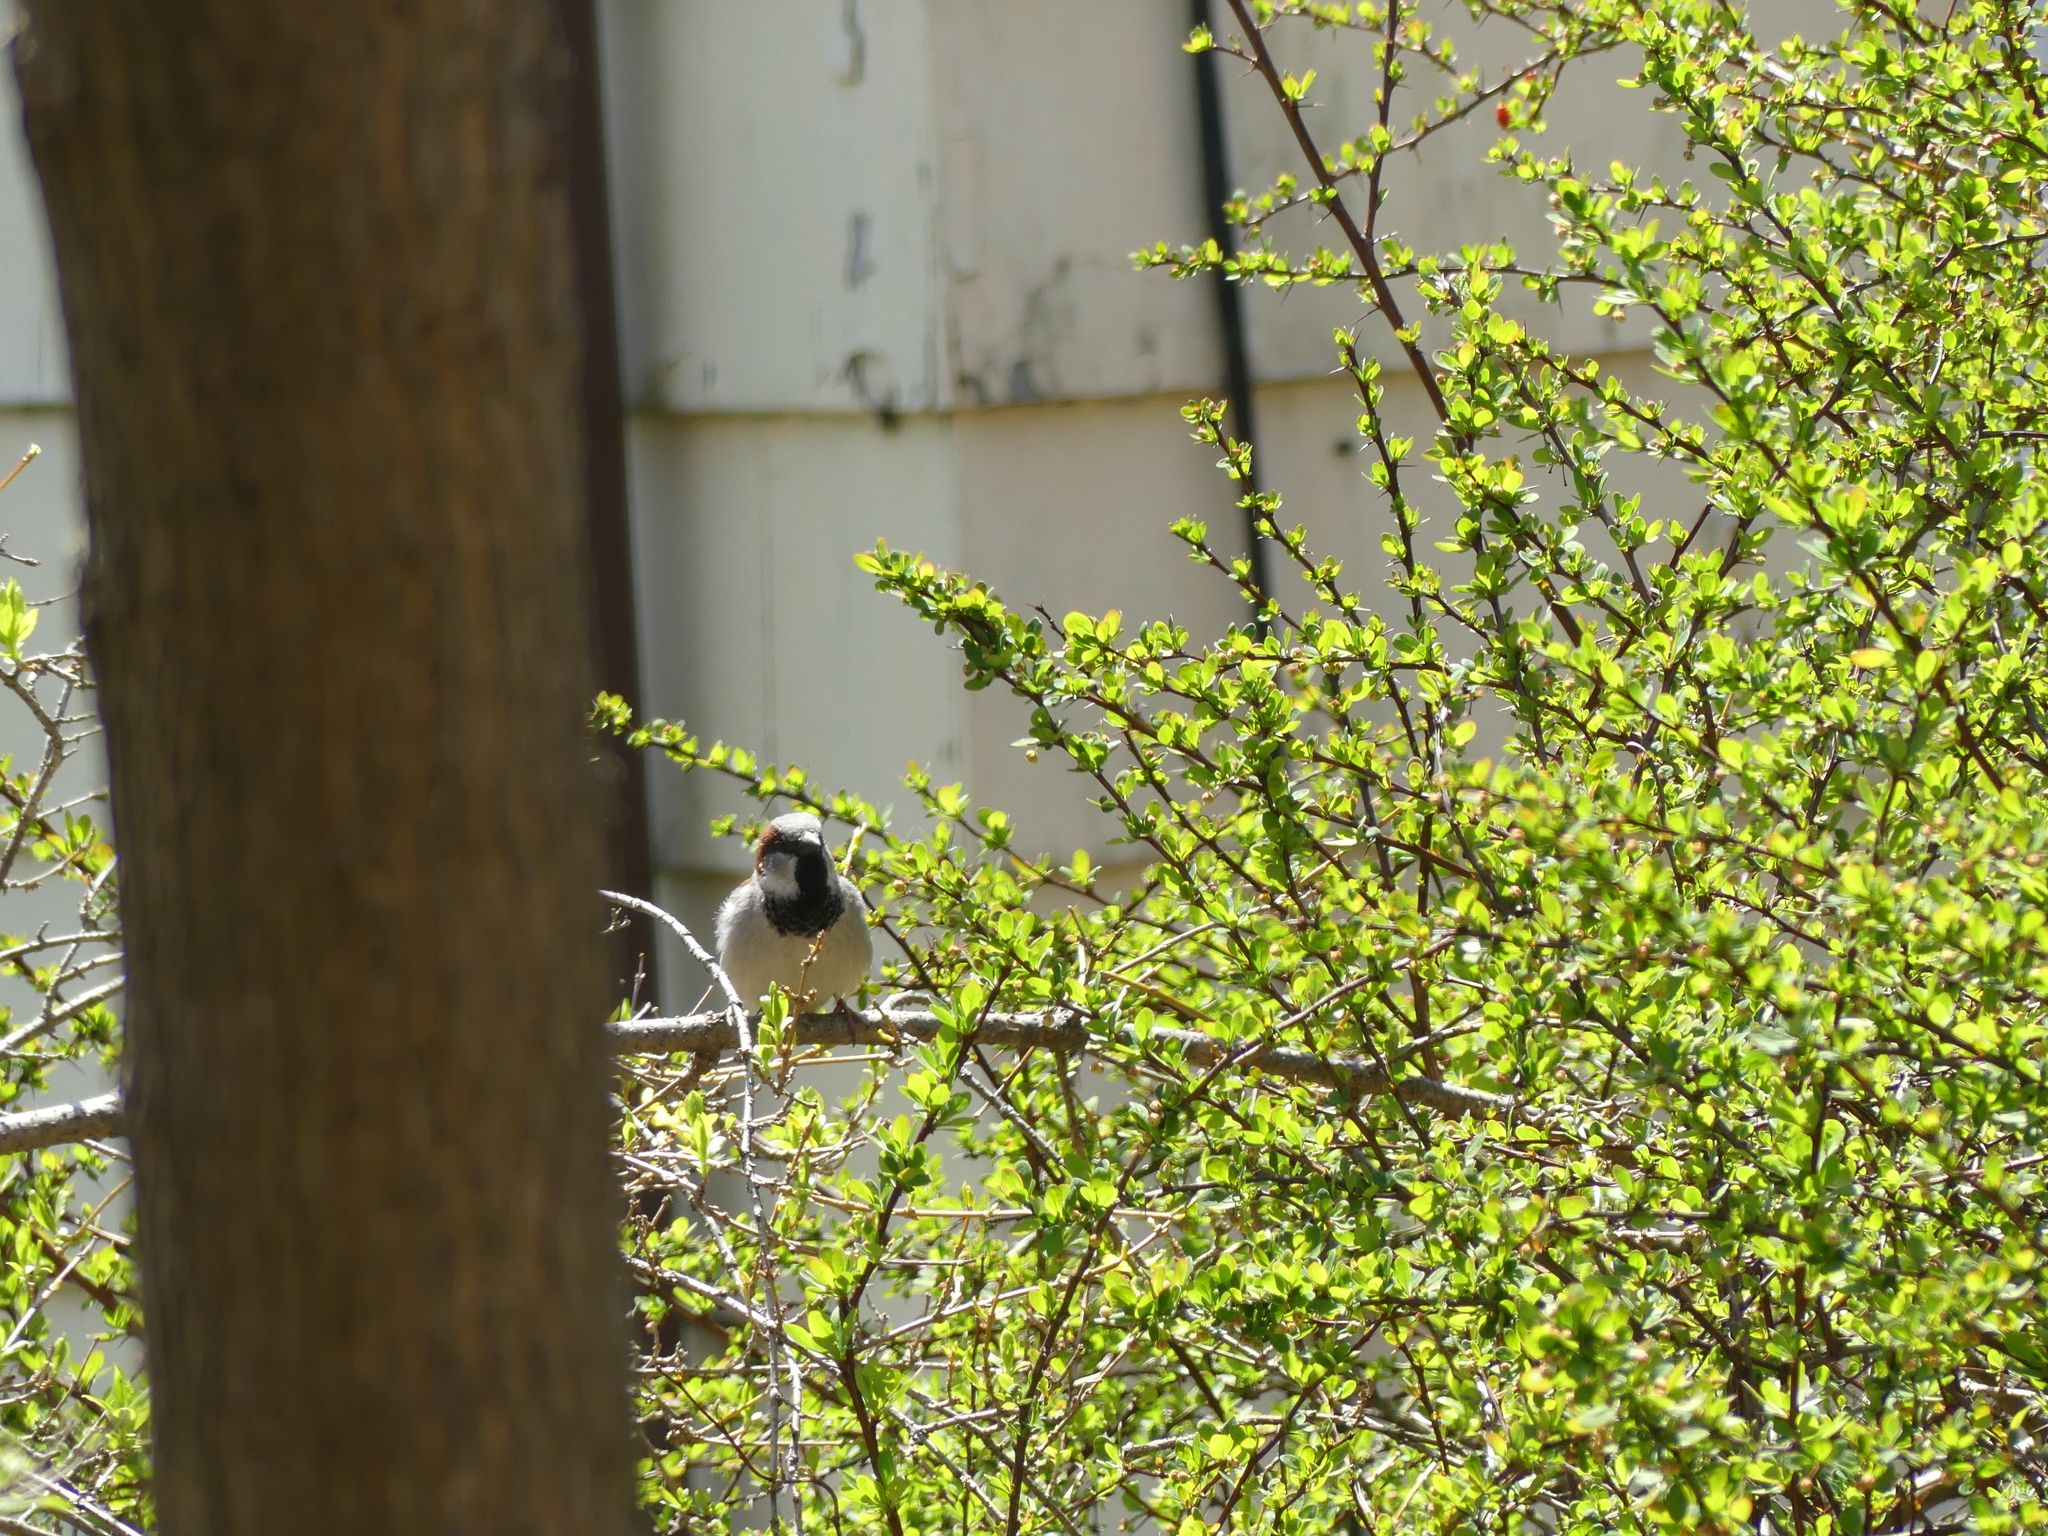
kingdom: Animalia
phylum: Chordata
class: Aves
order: Passeriformes
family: Passeridae
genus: Passer
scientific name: Passer domesticus
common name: House sparrow
